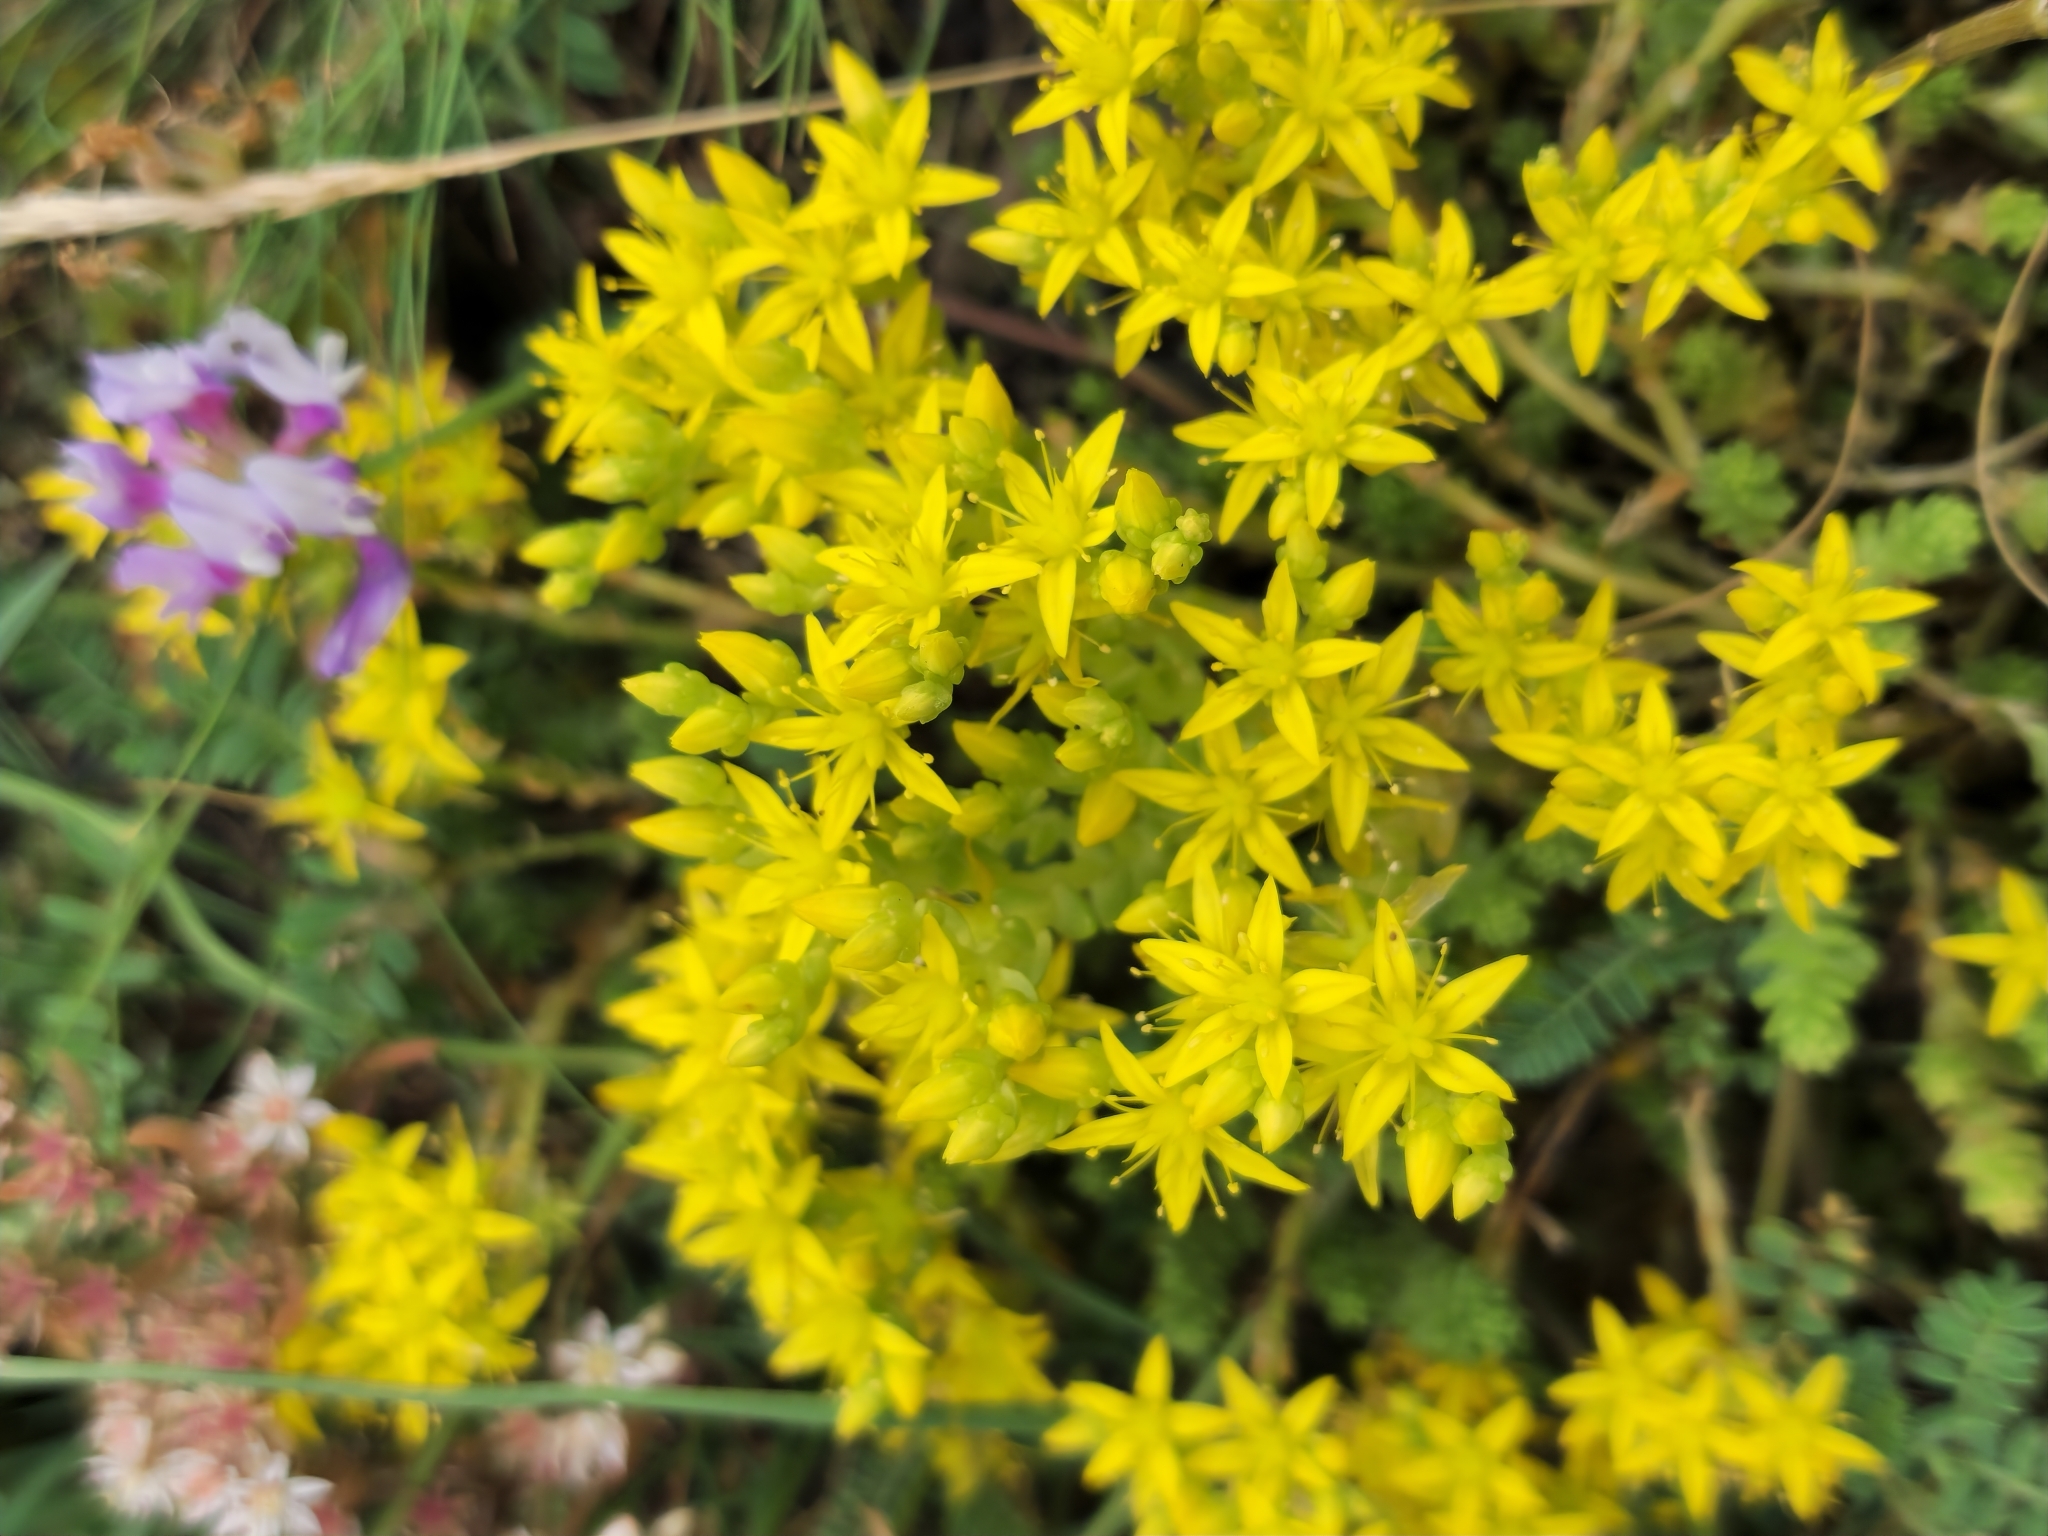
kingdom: Plantae
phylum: Tracheophyta
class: Magnoliopsida
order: Saxifragales
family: Crassulaceae
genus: Sedum
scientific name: Sedum acre
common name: Biting stonecrop
